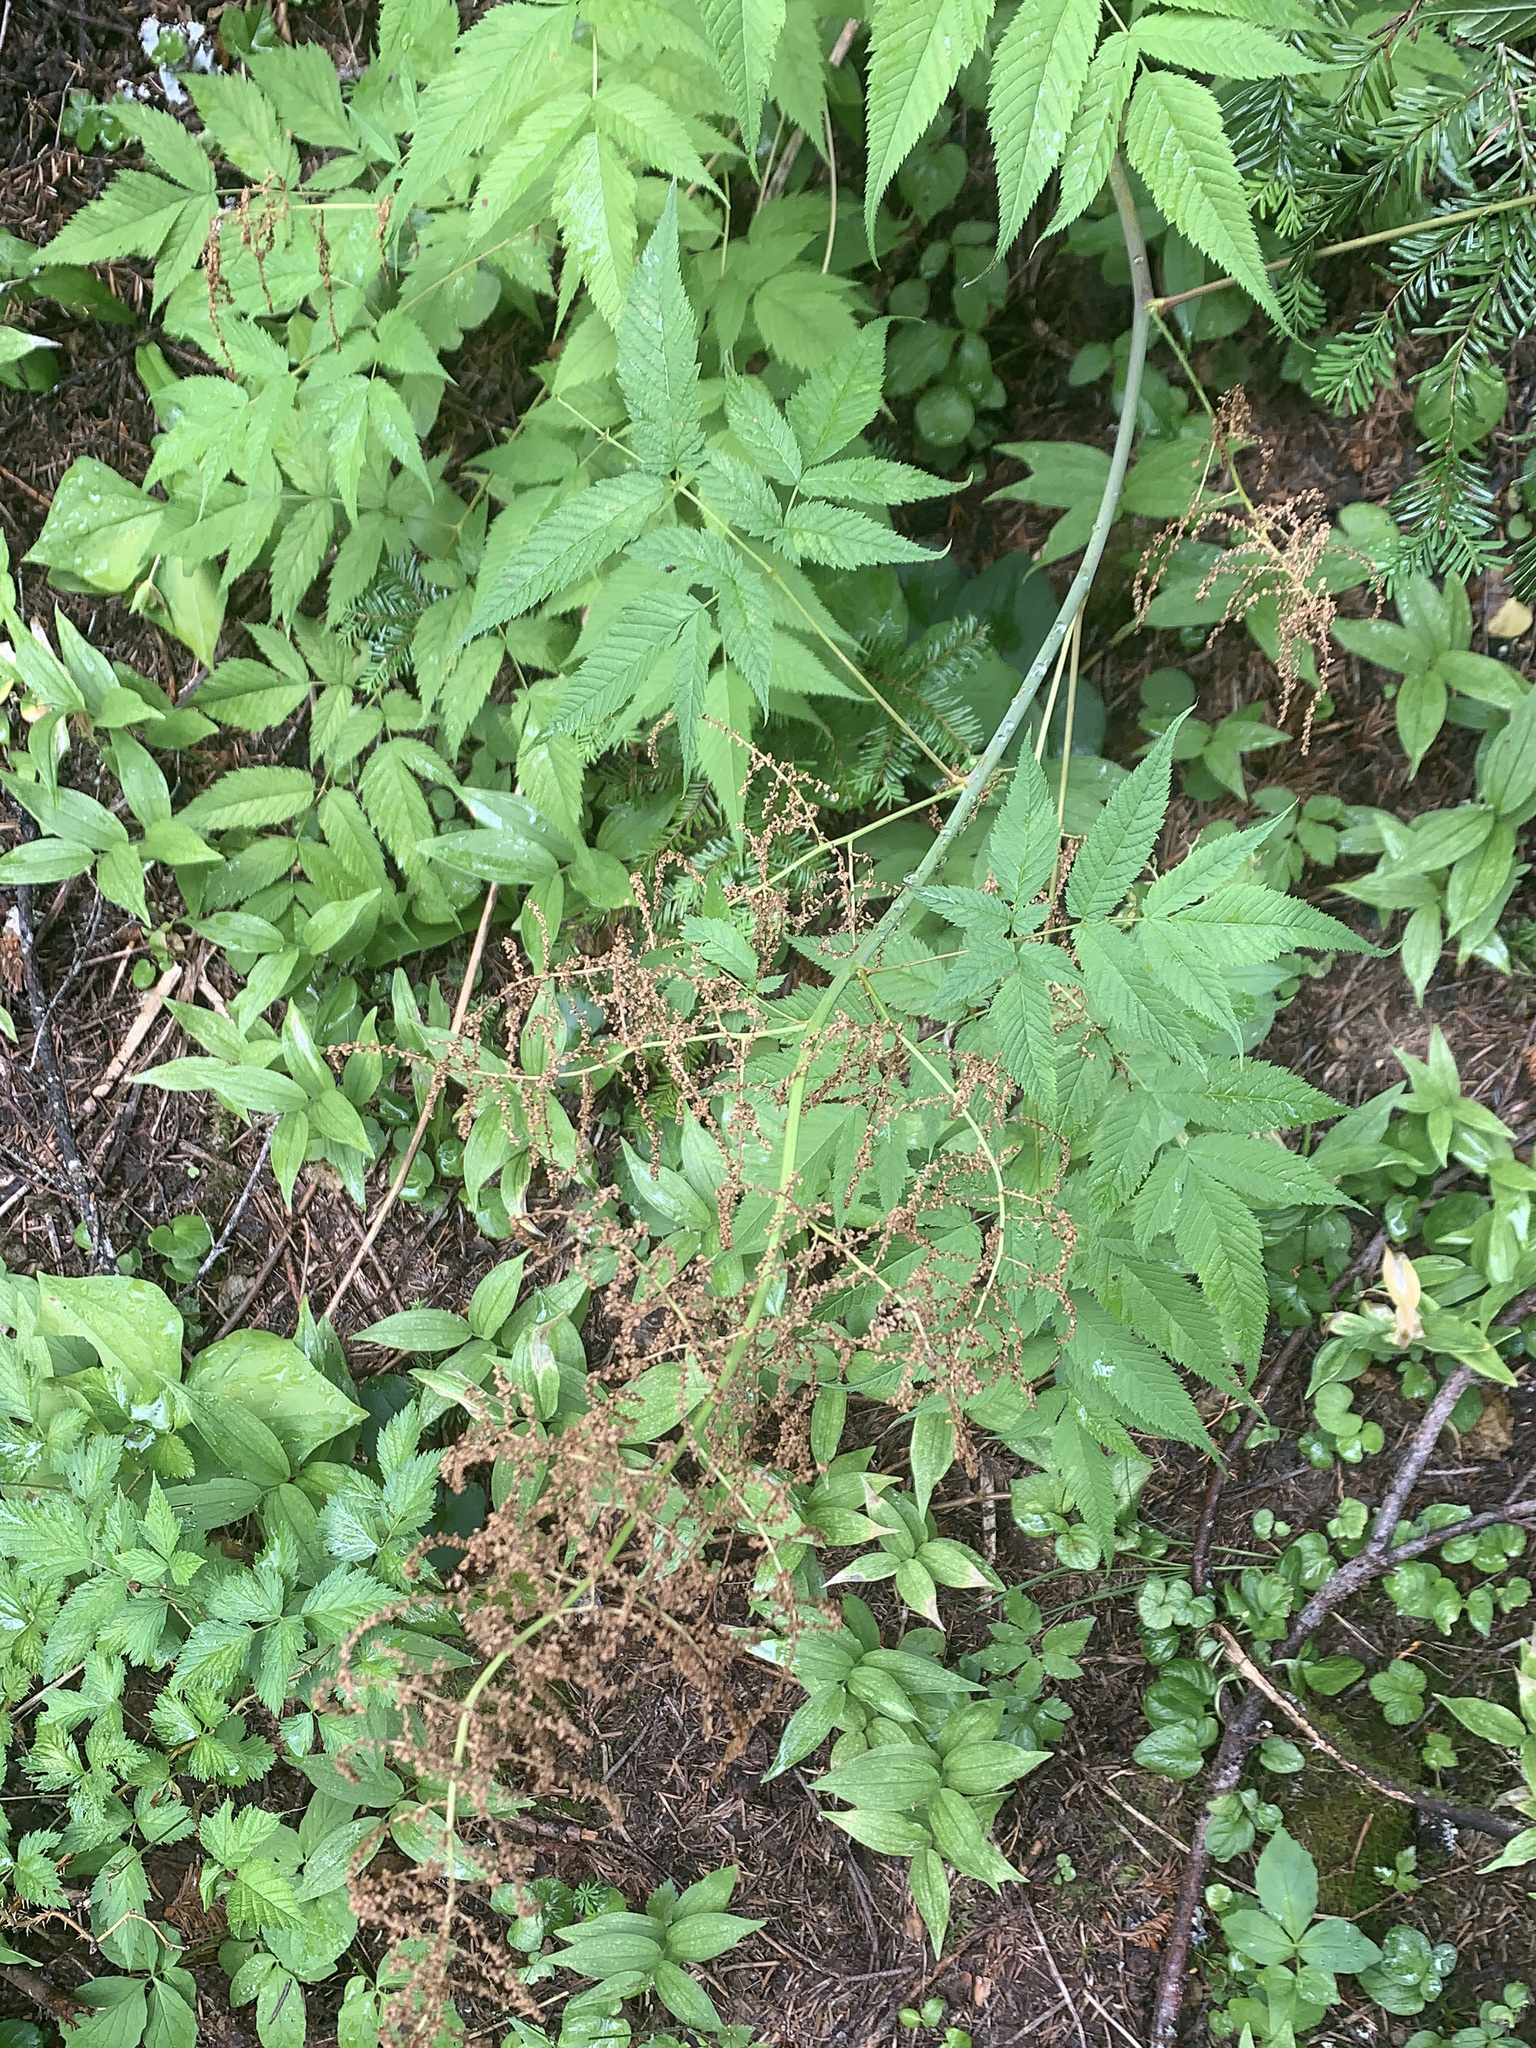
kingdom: Plantae
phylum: Tracheophyta
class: Magnoliopsida
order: Rosales
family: Rosaceae
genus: Aruncus
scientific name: Aruncus dioicus
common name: Buck's-beard
